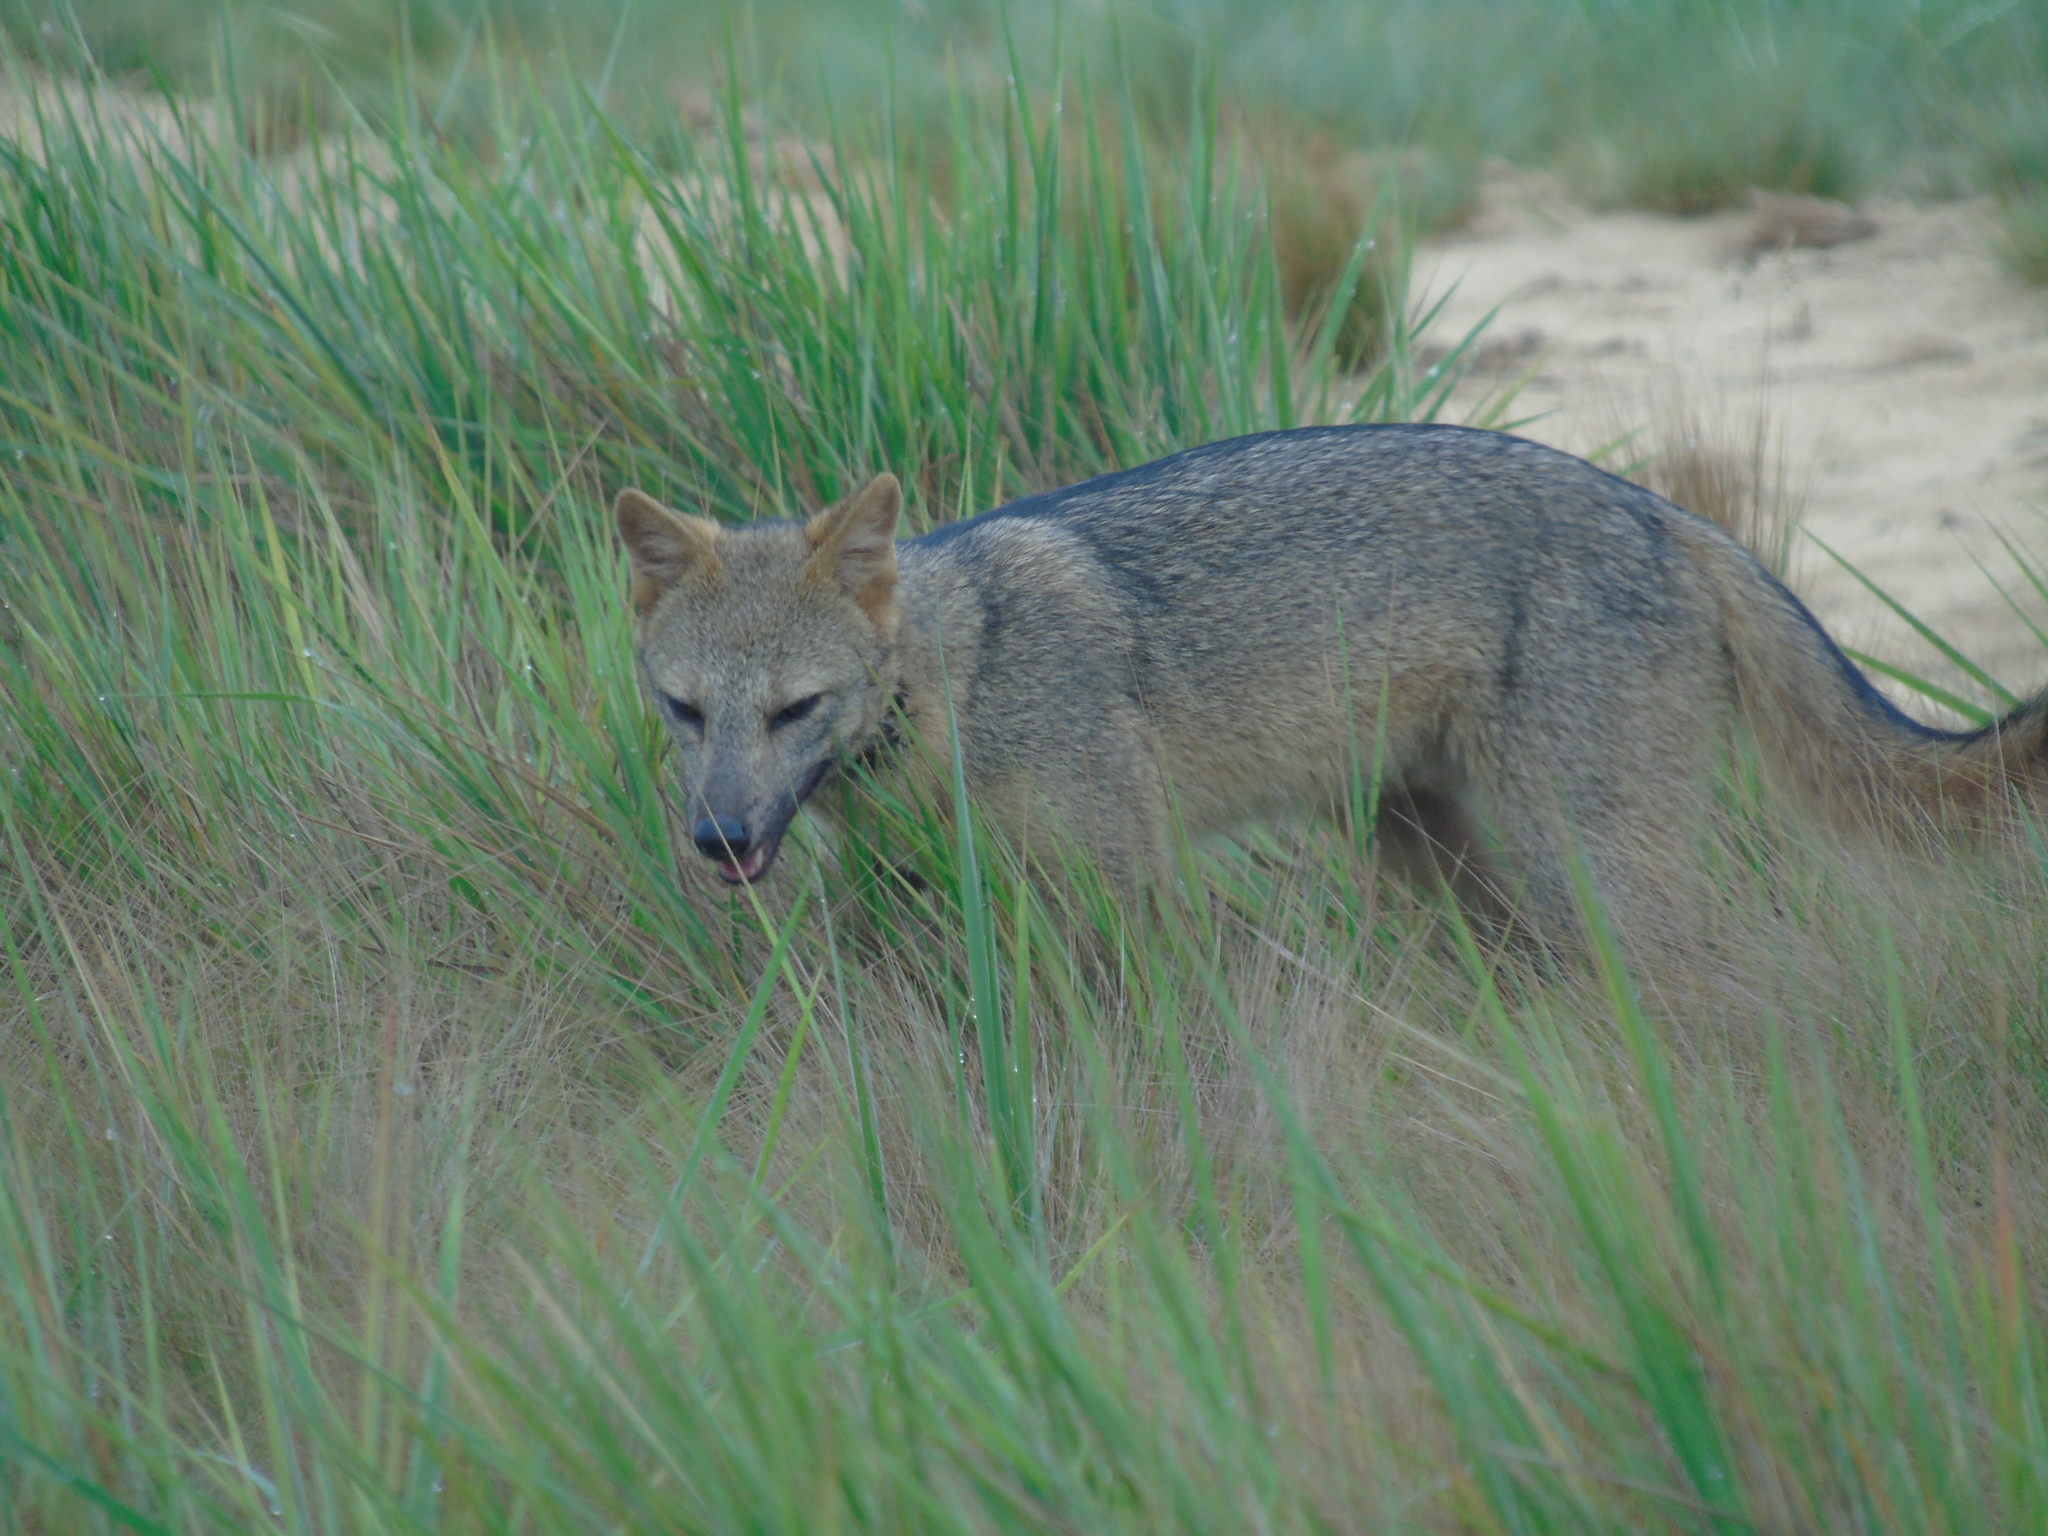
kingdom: Animalia
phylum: Chordata
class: Mammalia
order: Carnivora
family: Canidae
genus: Cerdocyon
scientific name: Cerdocyon thous
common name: Crab-eating fox
